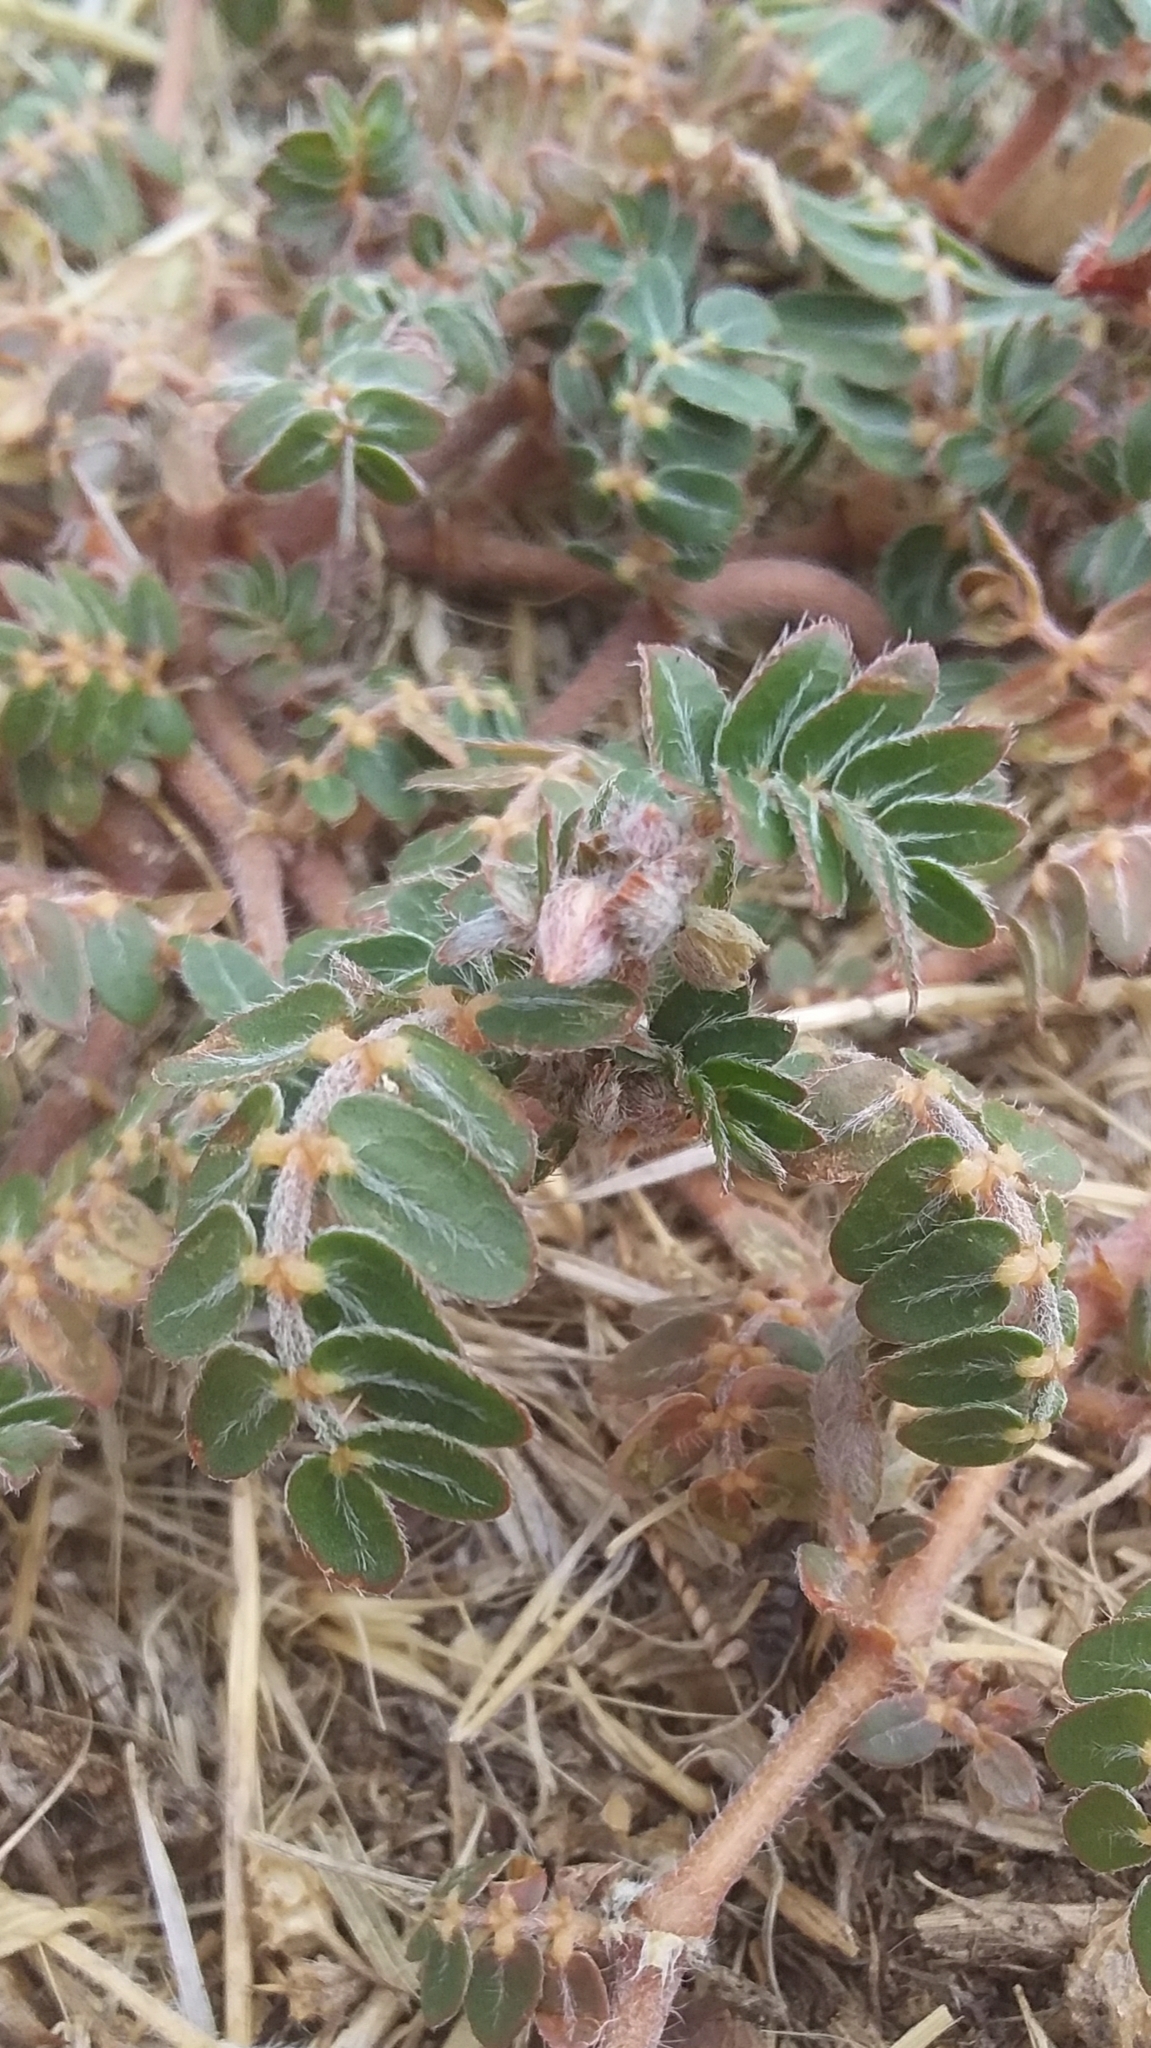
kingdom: Plantae
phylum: Tracheophyta
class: Magnoliopsida
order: Zygophyllales
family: Zygophyllaceae
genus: Tribulus
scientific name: Tribulus terrestris
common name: Puncturevine
